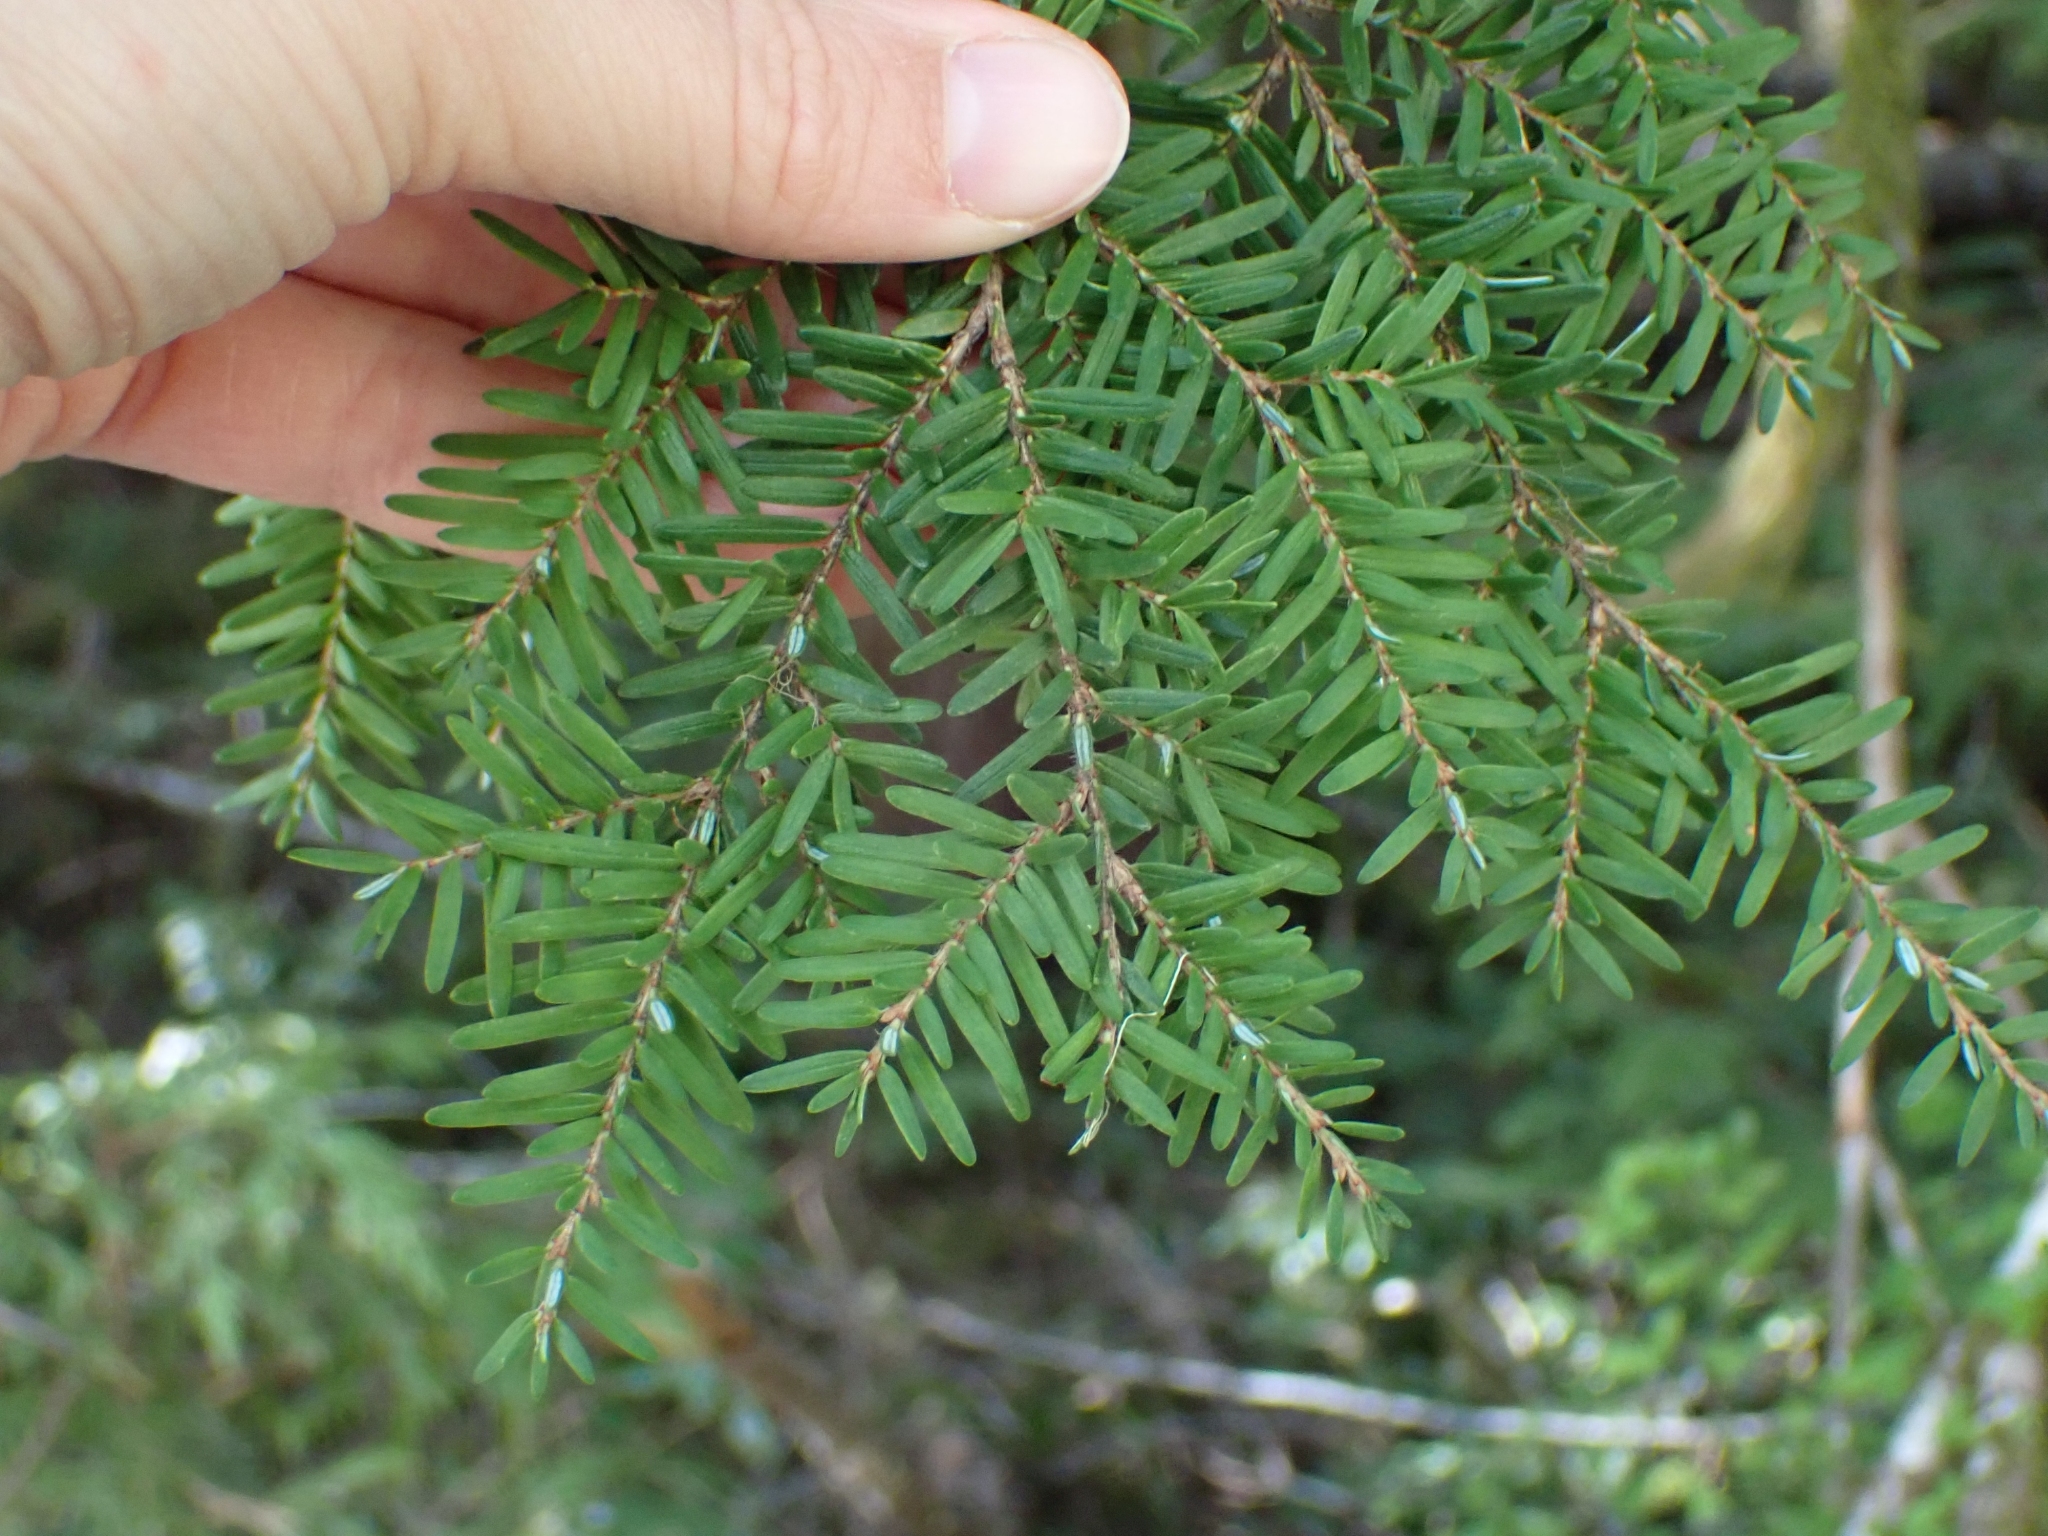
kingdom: Plantae
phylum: Tracheophyta
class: Pinopsida
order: Pinales
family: Pinaceae
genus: Tsuga
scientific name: Tsuga heterophylla
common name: Western hemlock
